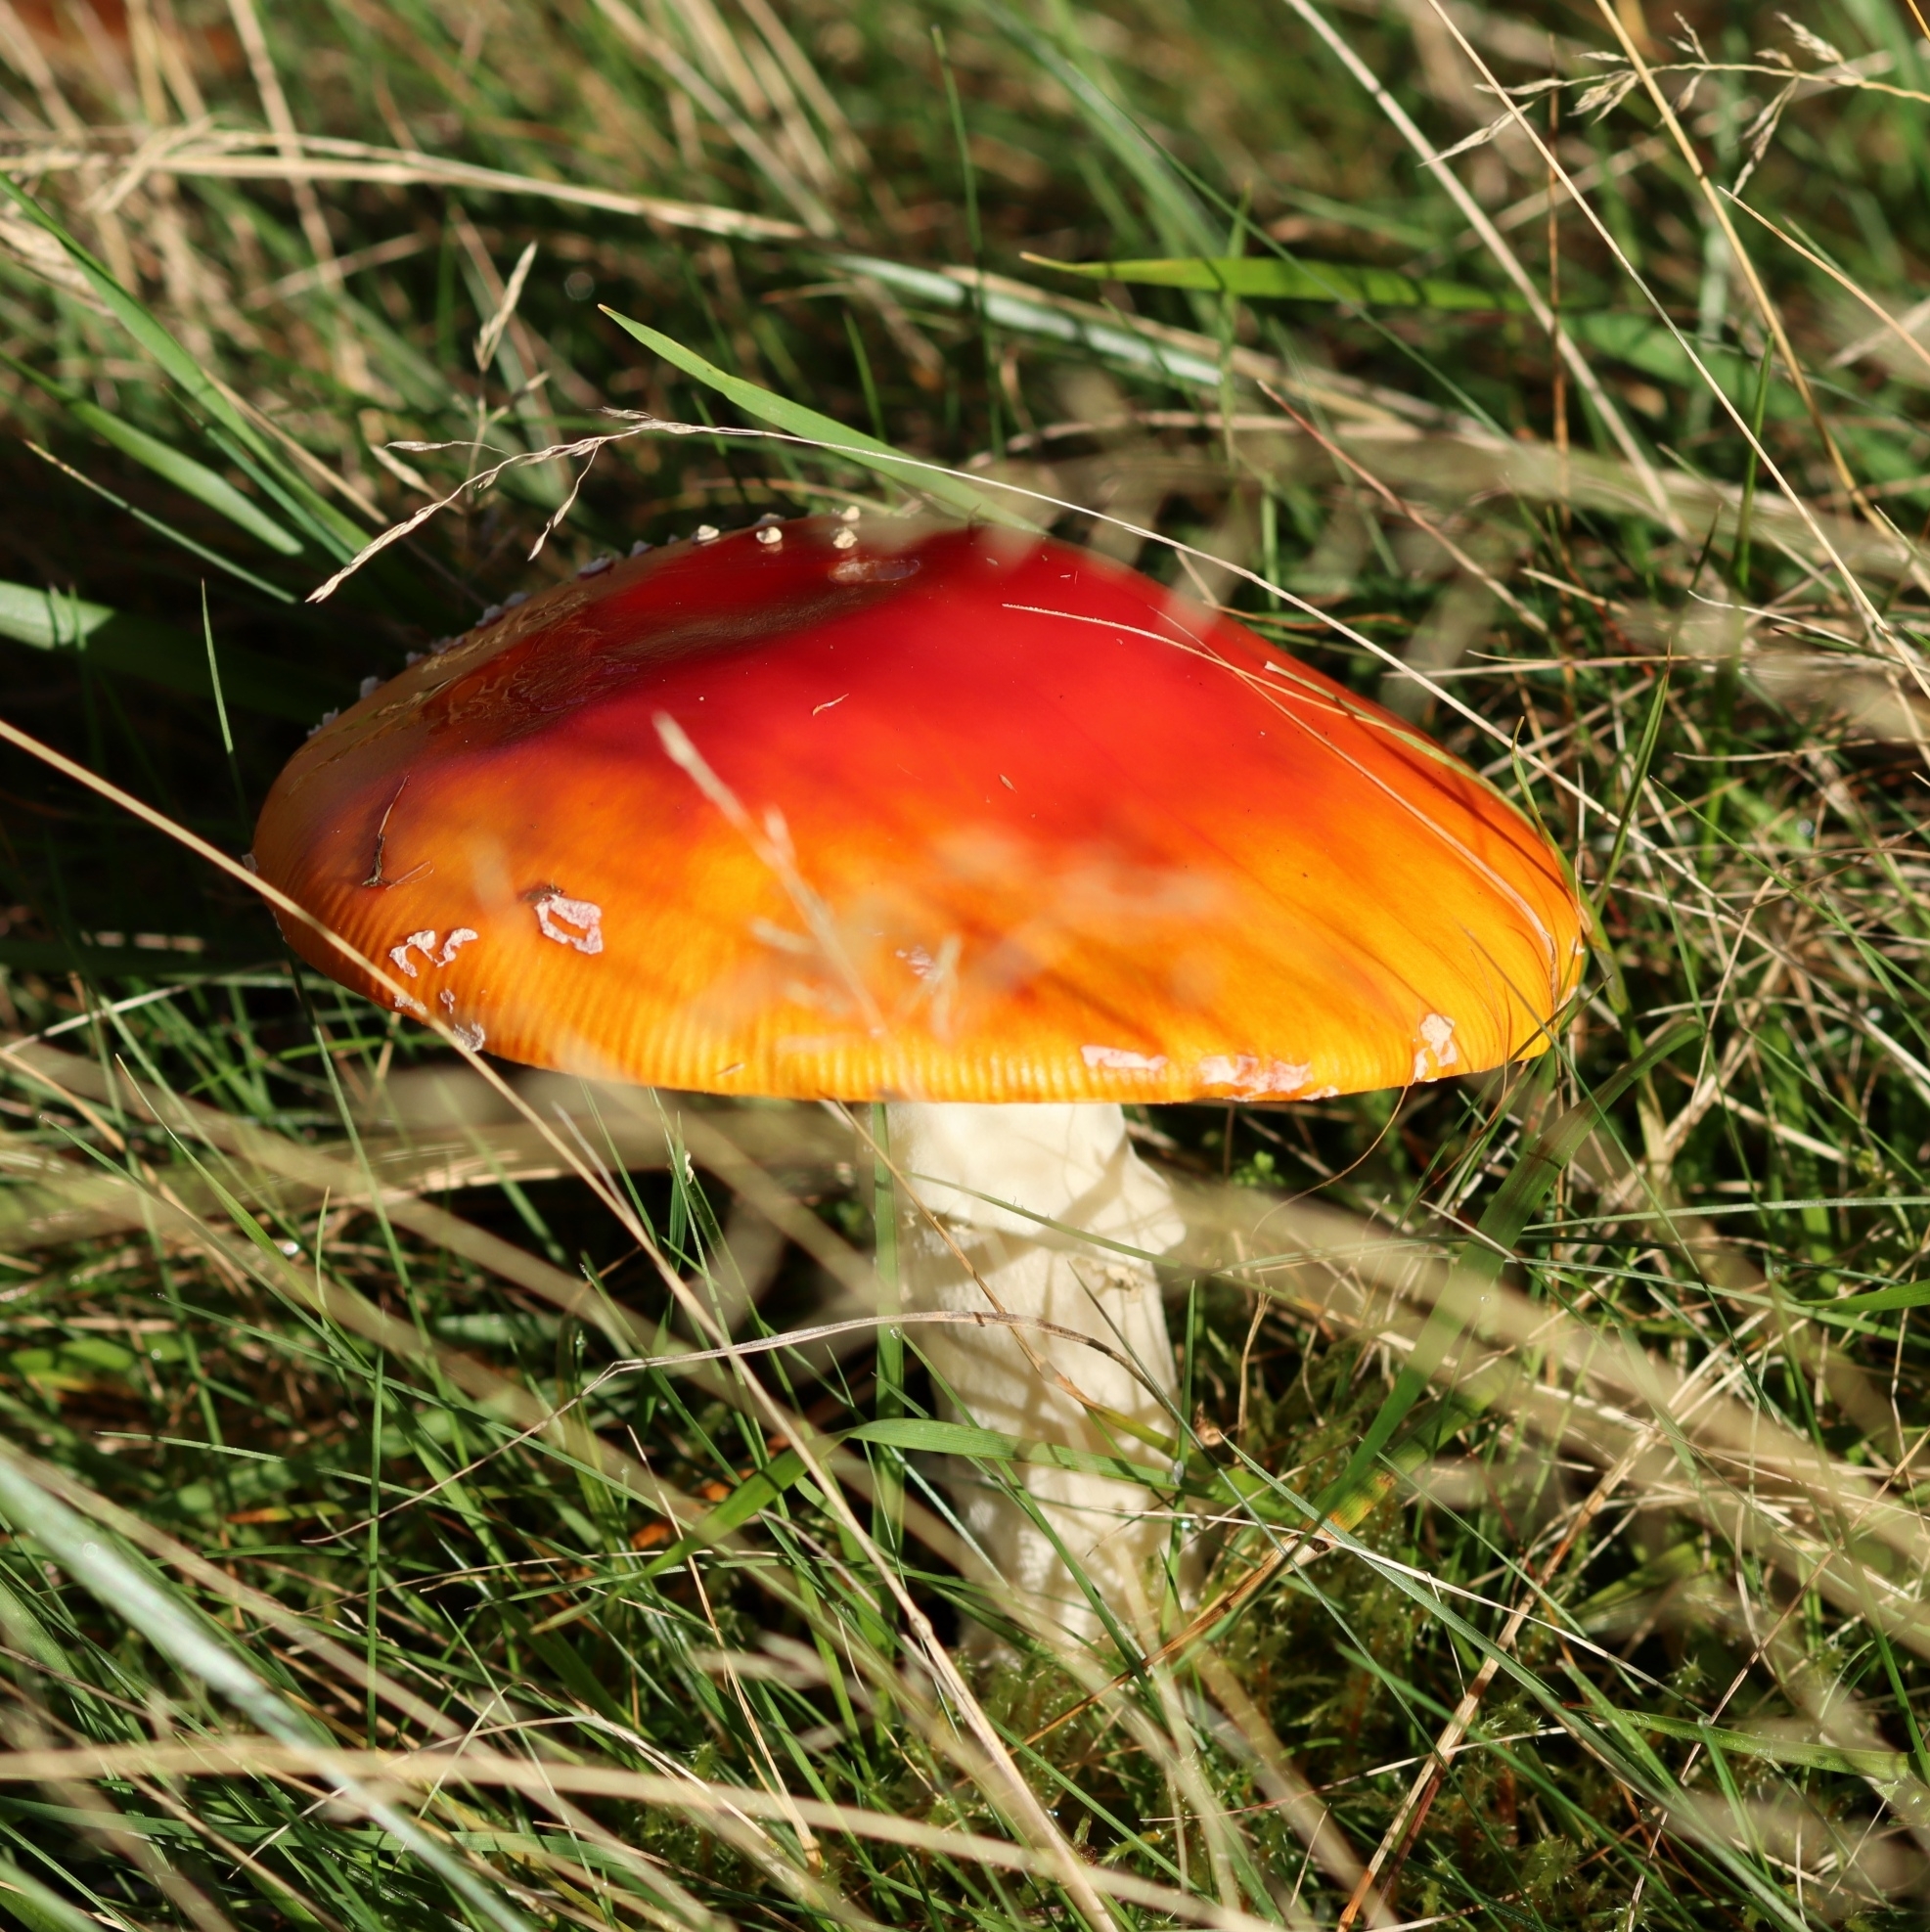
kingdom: Fungi
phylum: Basidiomycota
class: Agaricomycetes
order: Agaricales
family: Amanitaceae
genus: Amanita
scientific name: Amanita muscaria
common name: Fly agaric
